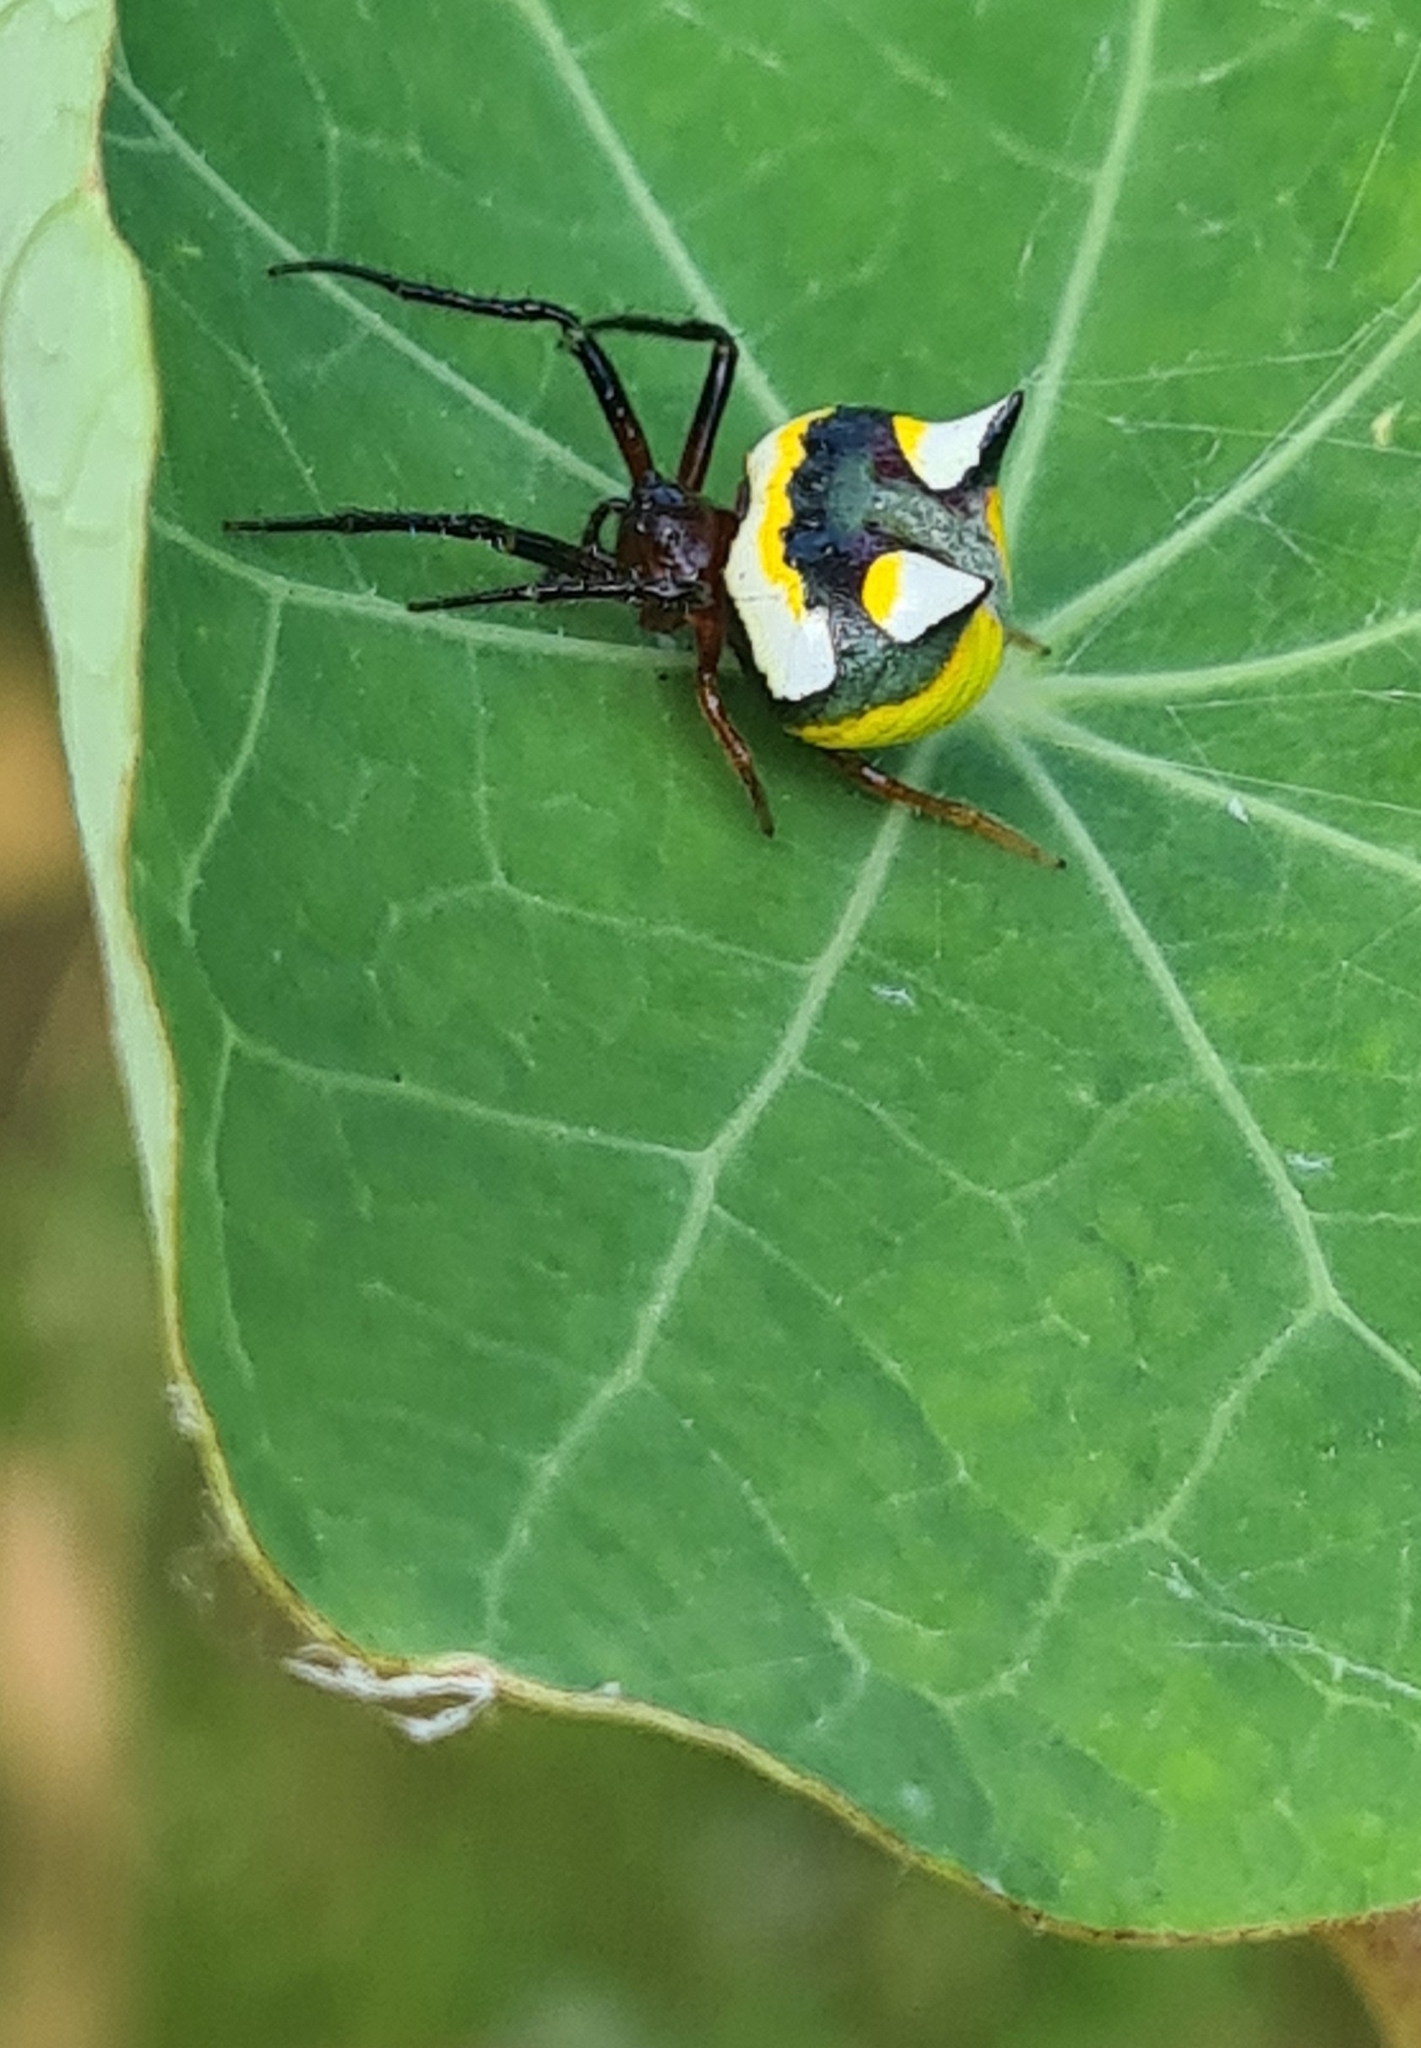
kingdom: Animalia
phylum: Arthropoda
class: Arachnida
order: Araneae
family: Araneidae
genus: Poecilopachys
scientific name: Poecilopachys australasia
